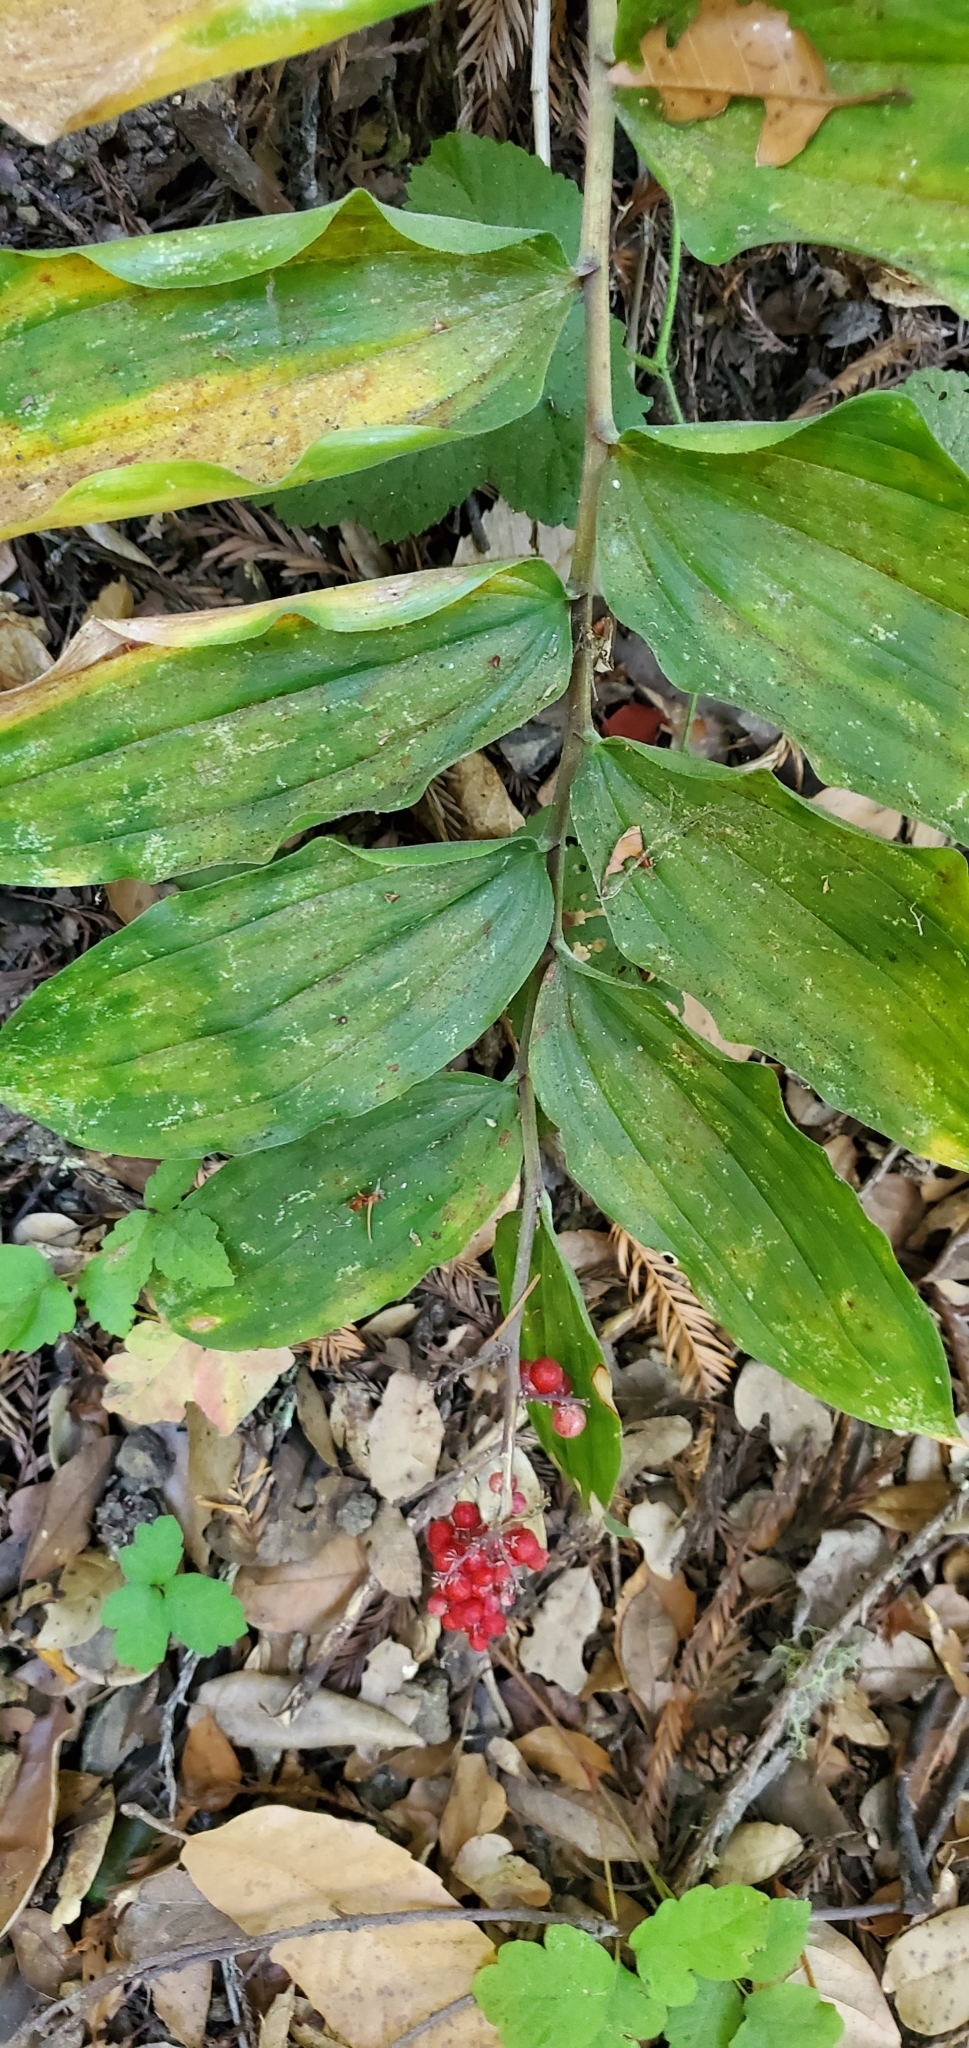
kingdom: Plantae
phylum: Tracheophyta
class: Liliopsida
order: Asparagales
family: Asparagaceae
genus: Maianthemum
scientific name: Maianthemum racemosum
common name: False spikenard
